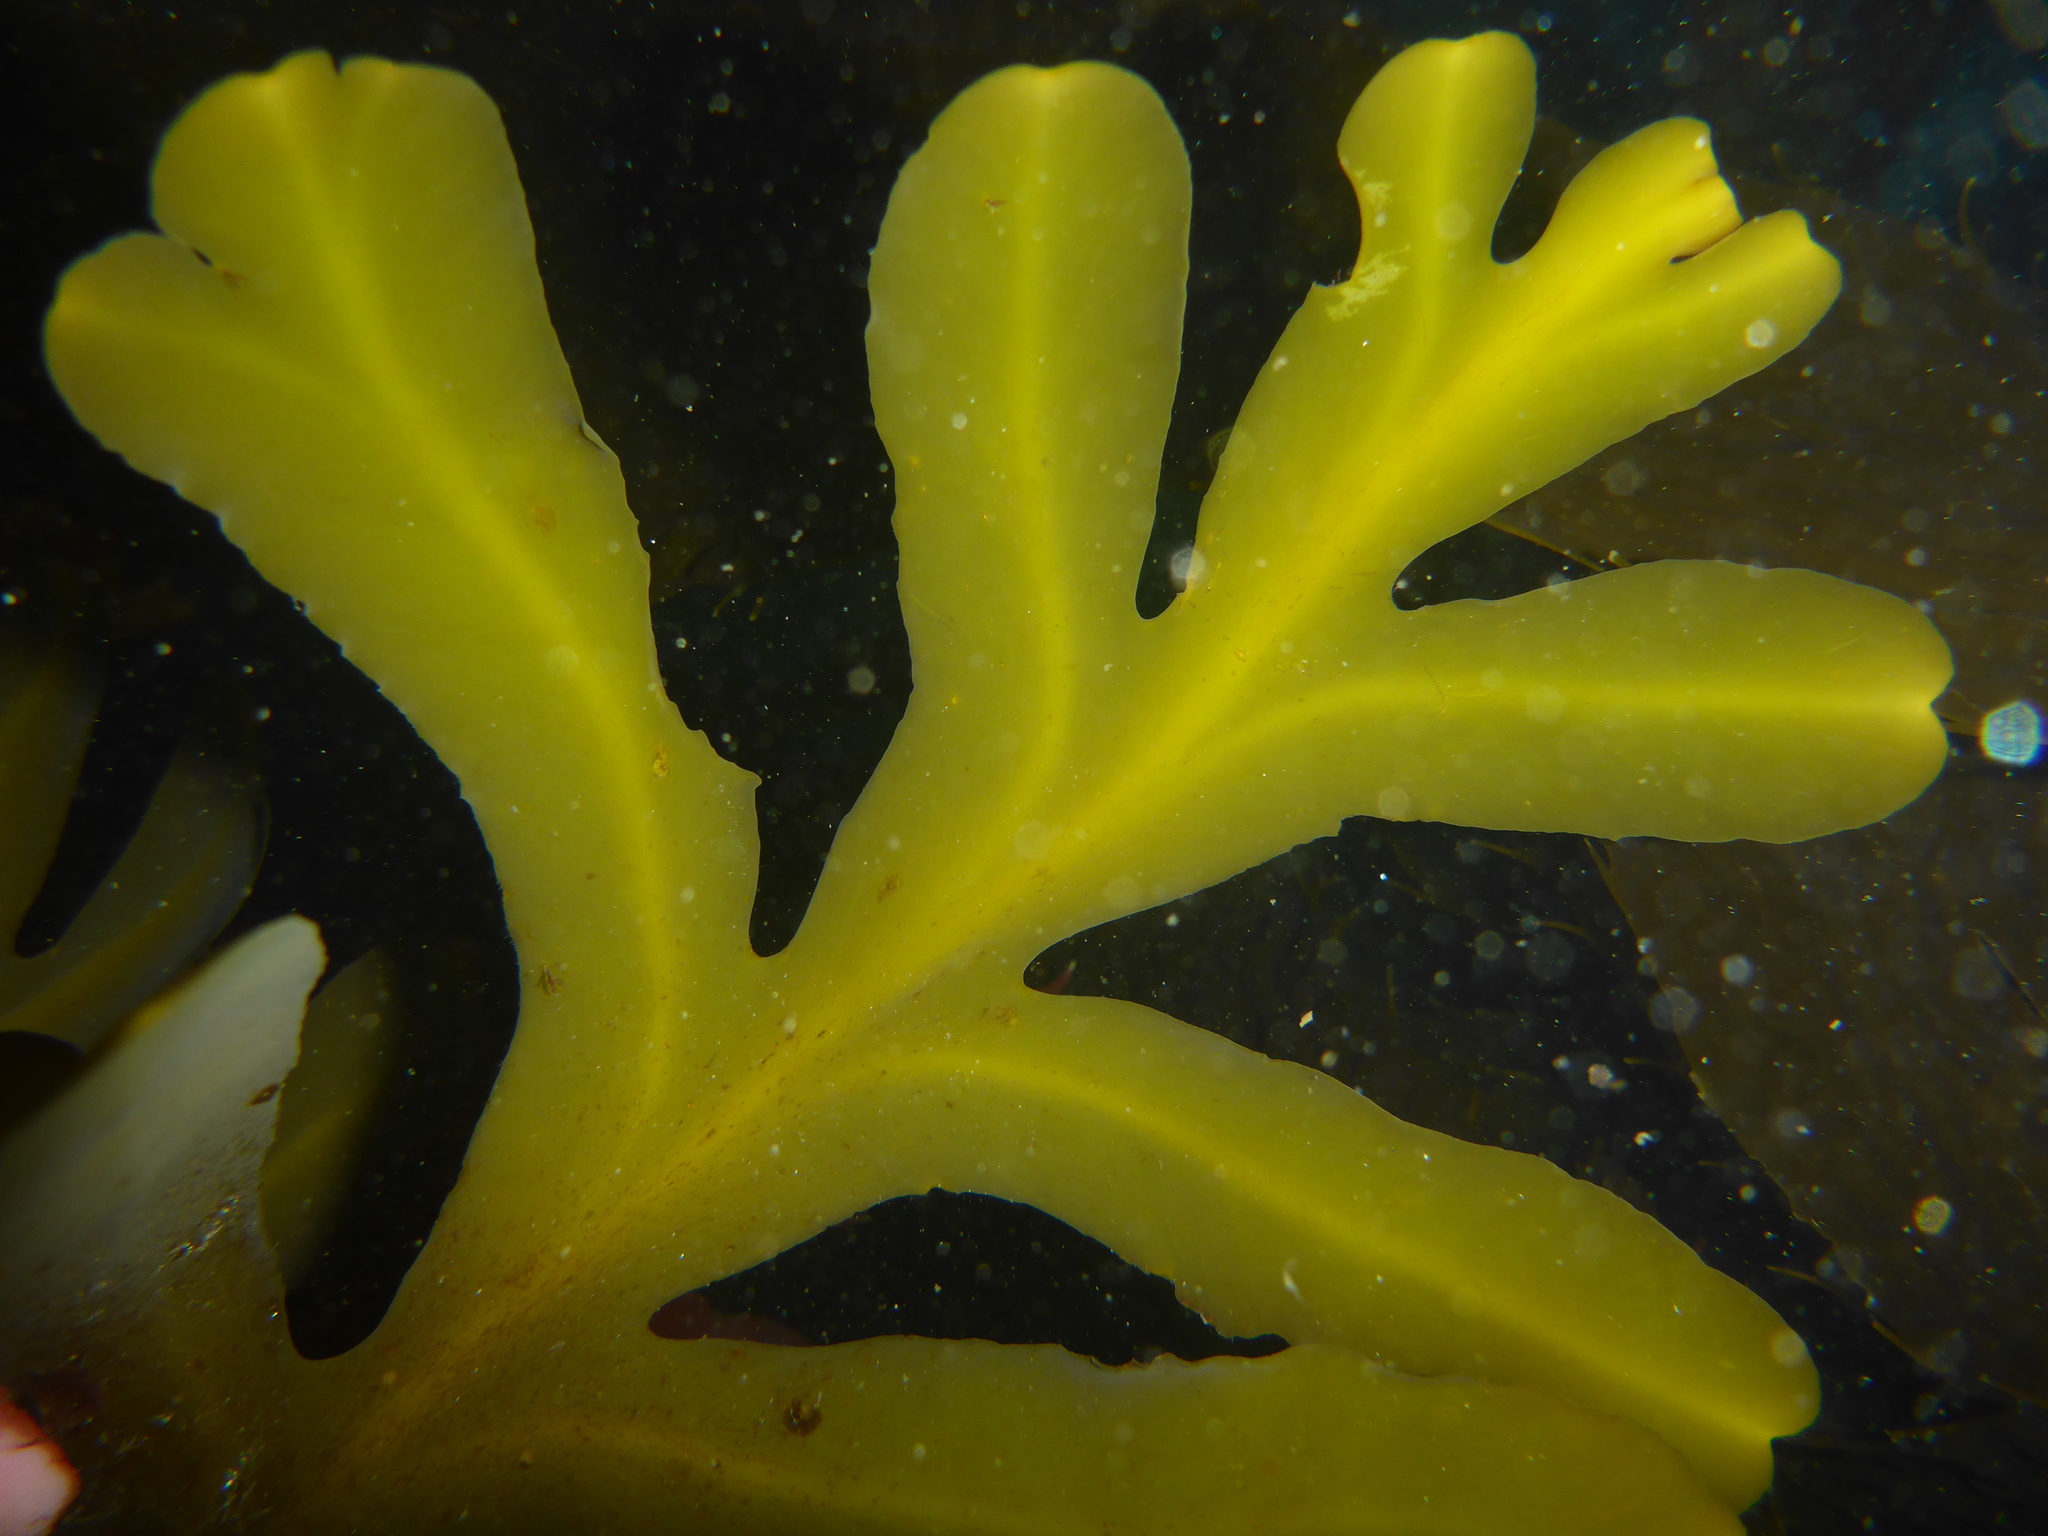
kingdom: Chromista
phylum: Ochrophyta
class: Phaeophyceae
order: Fucales
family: Sargassaceae
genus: Stephanocystis
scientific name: Stephanocystis
